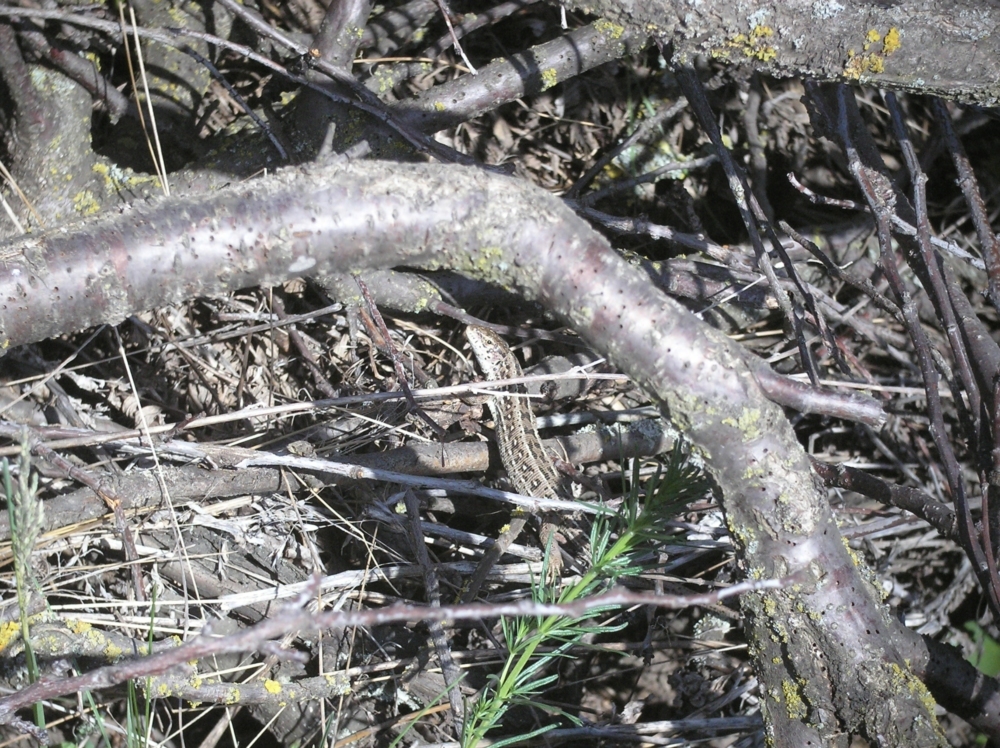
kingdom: Animalia
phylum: Chordata
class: Squamata
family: Lacertidae
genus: Lacerta
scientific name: Lacerta agilis
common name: Sand lizard
